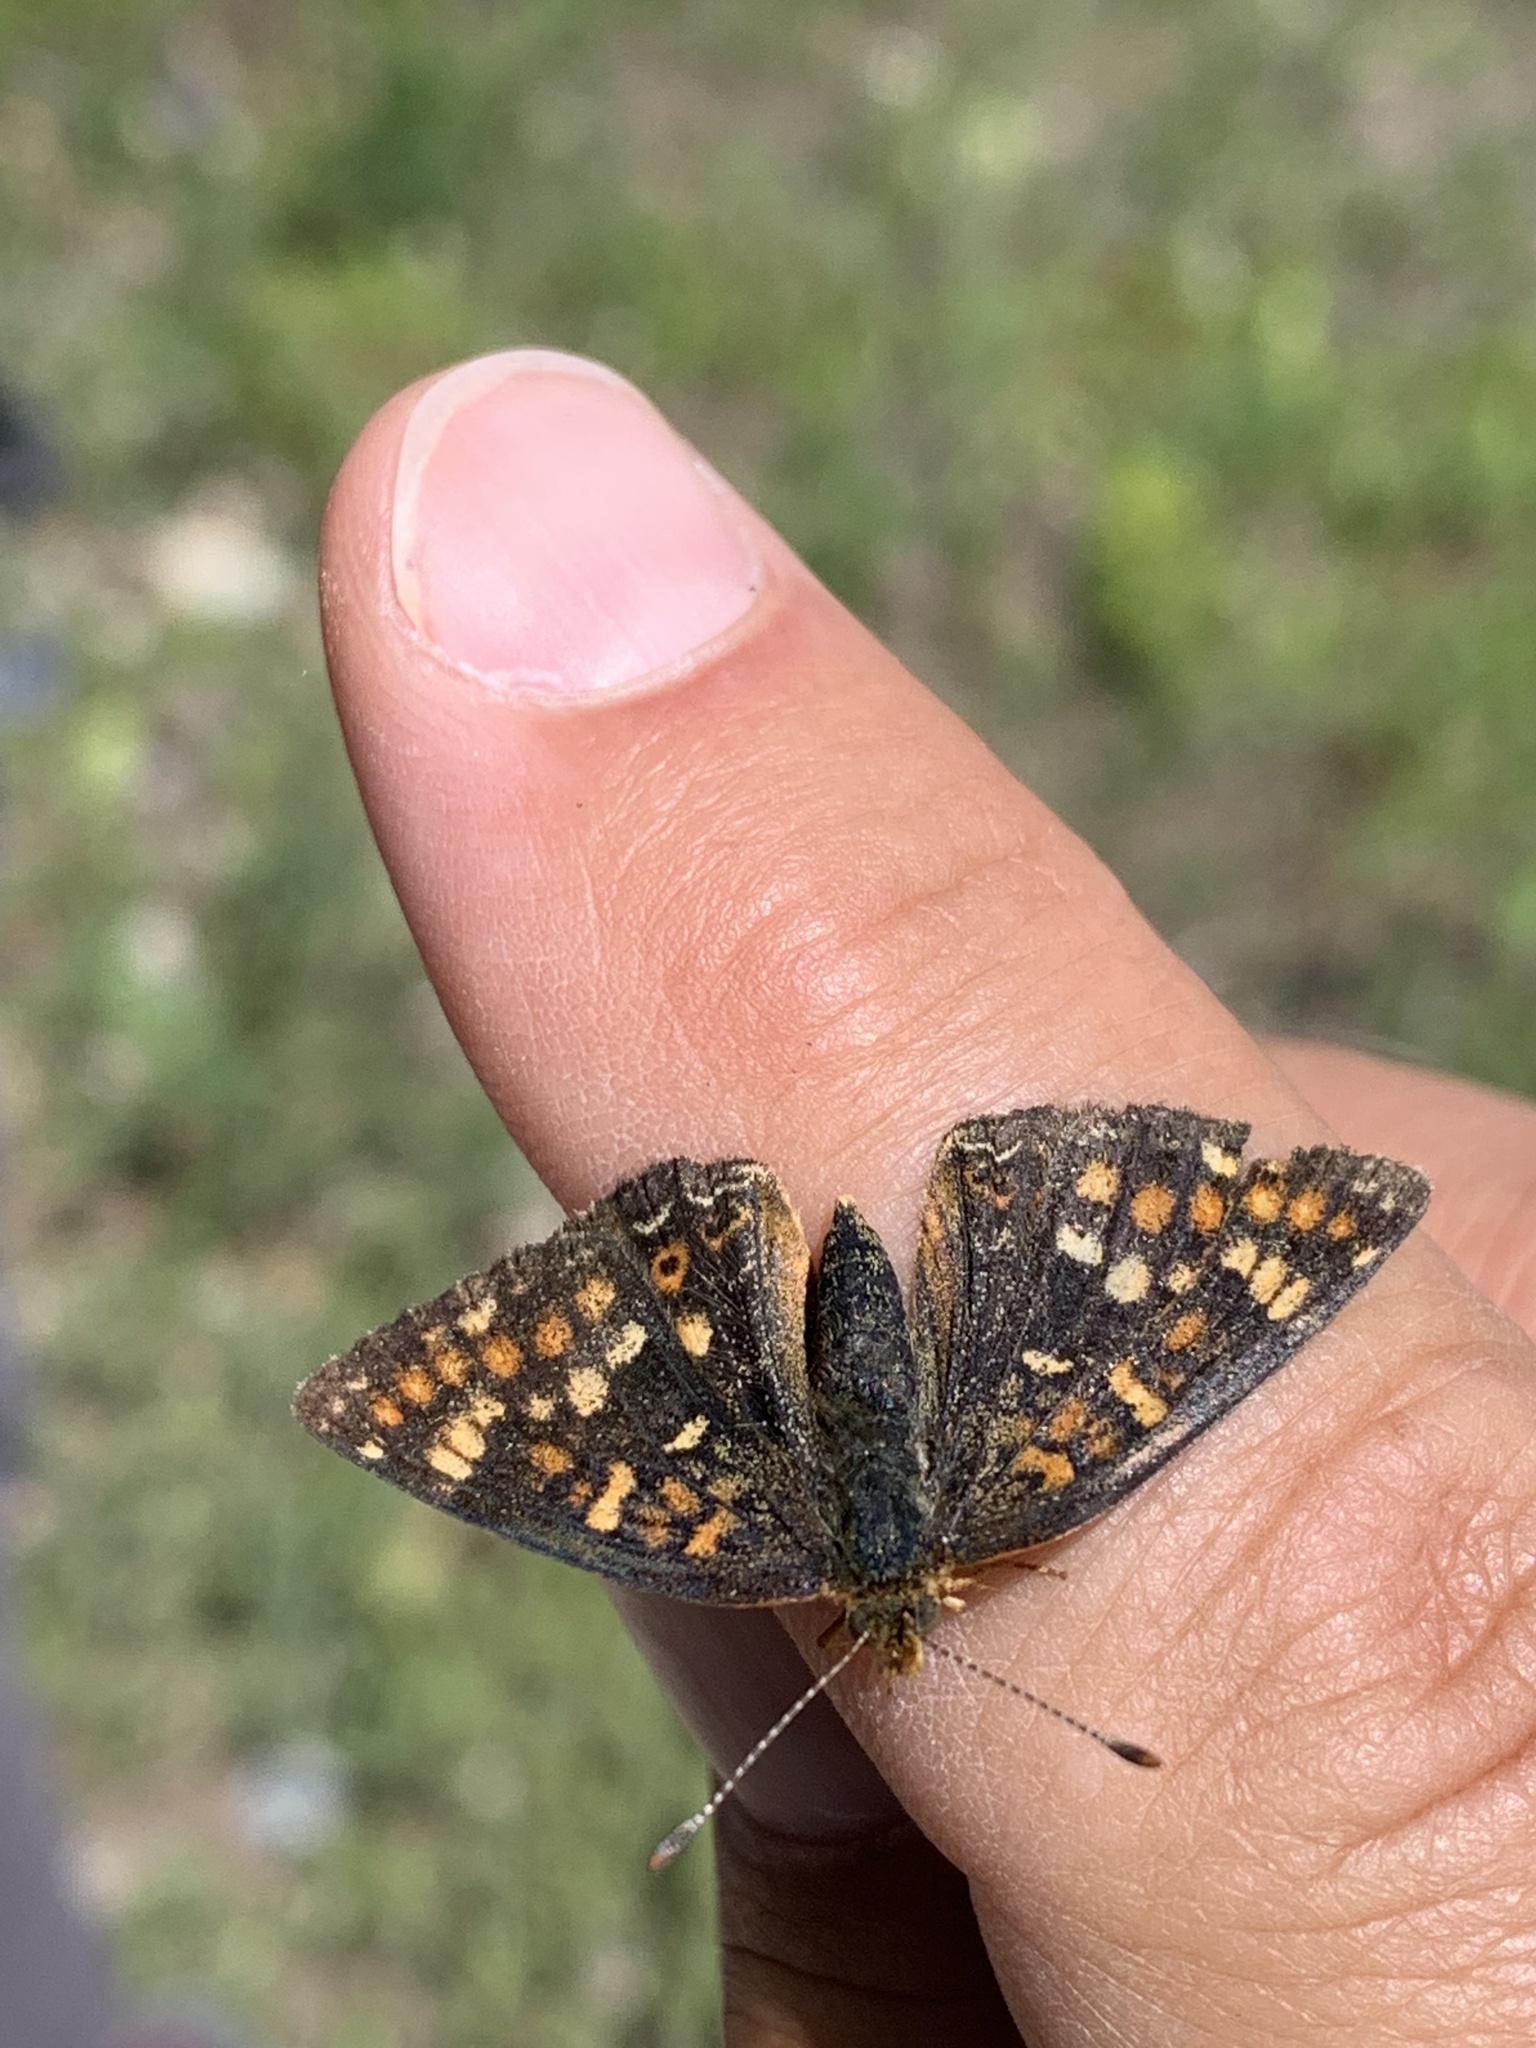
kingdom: Animalia
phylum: Arthropoda
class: Insecta
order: Lepidoptera
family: Nymphalidae
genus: Phyciodes
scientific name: Phyciodes tharos
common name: Pearl crescent
